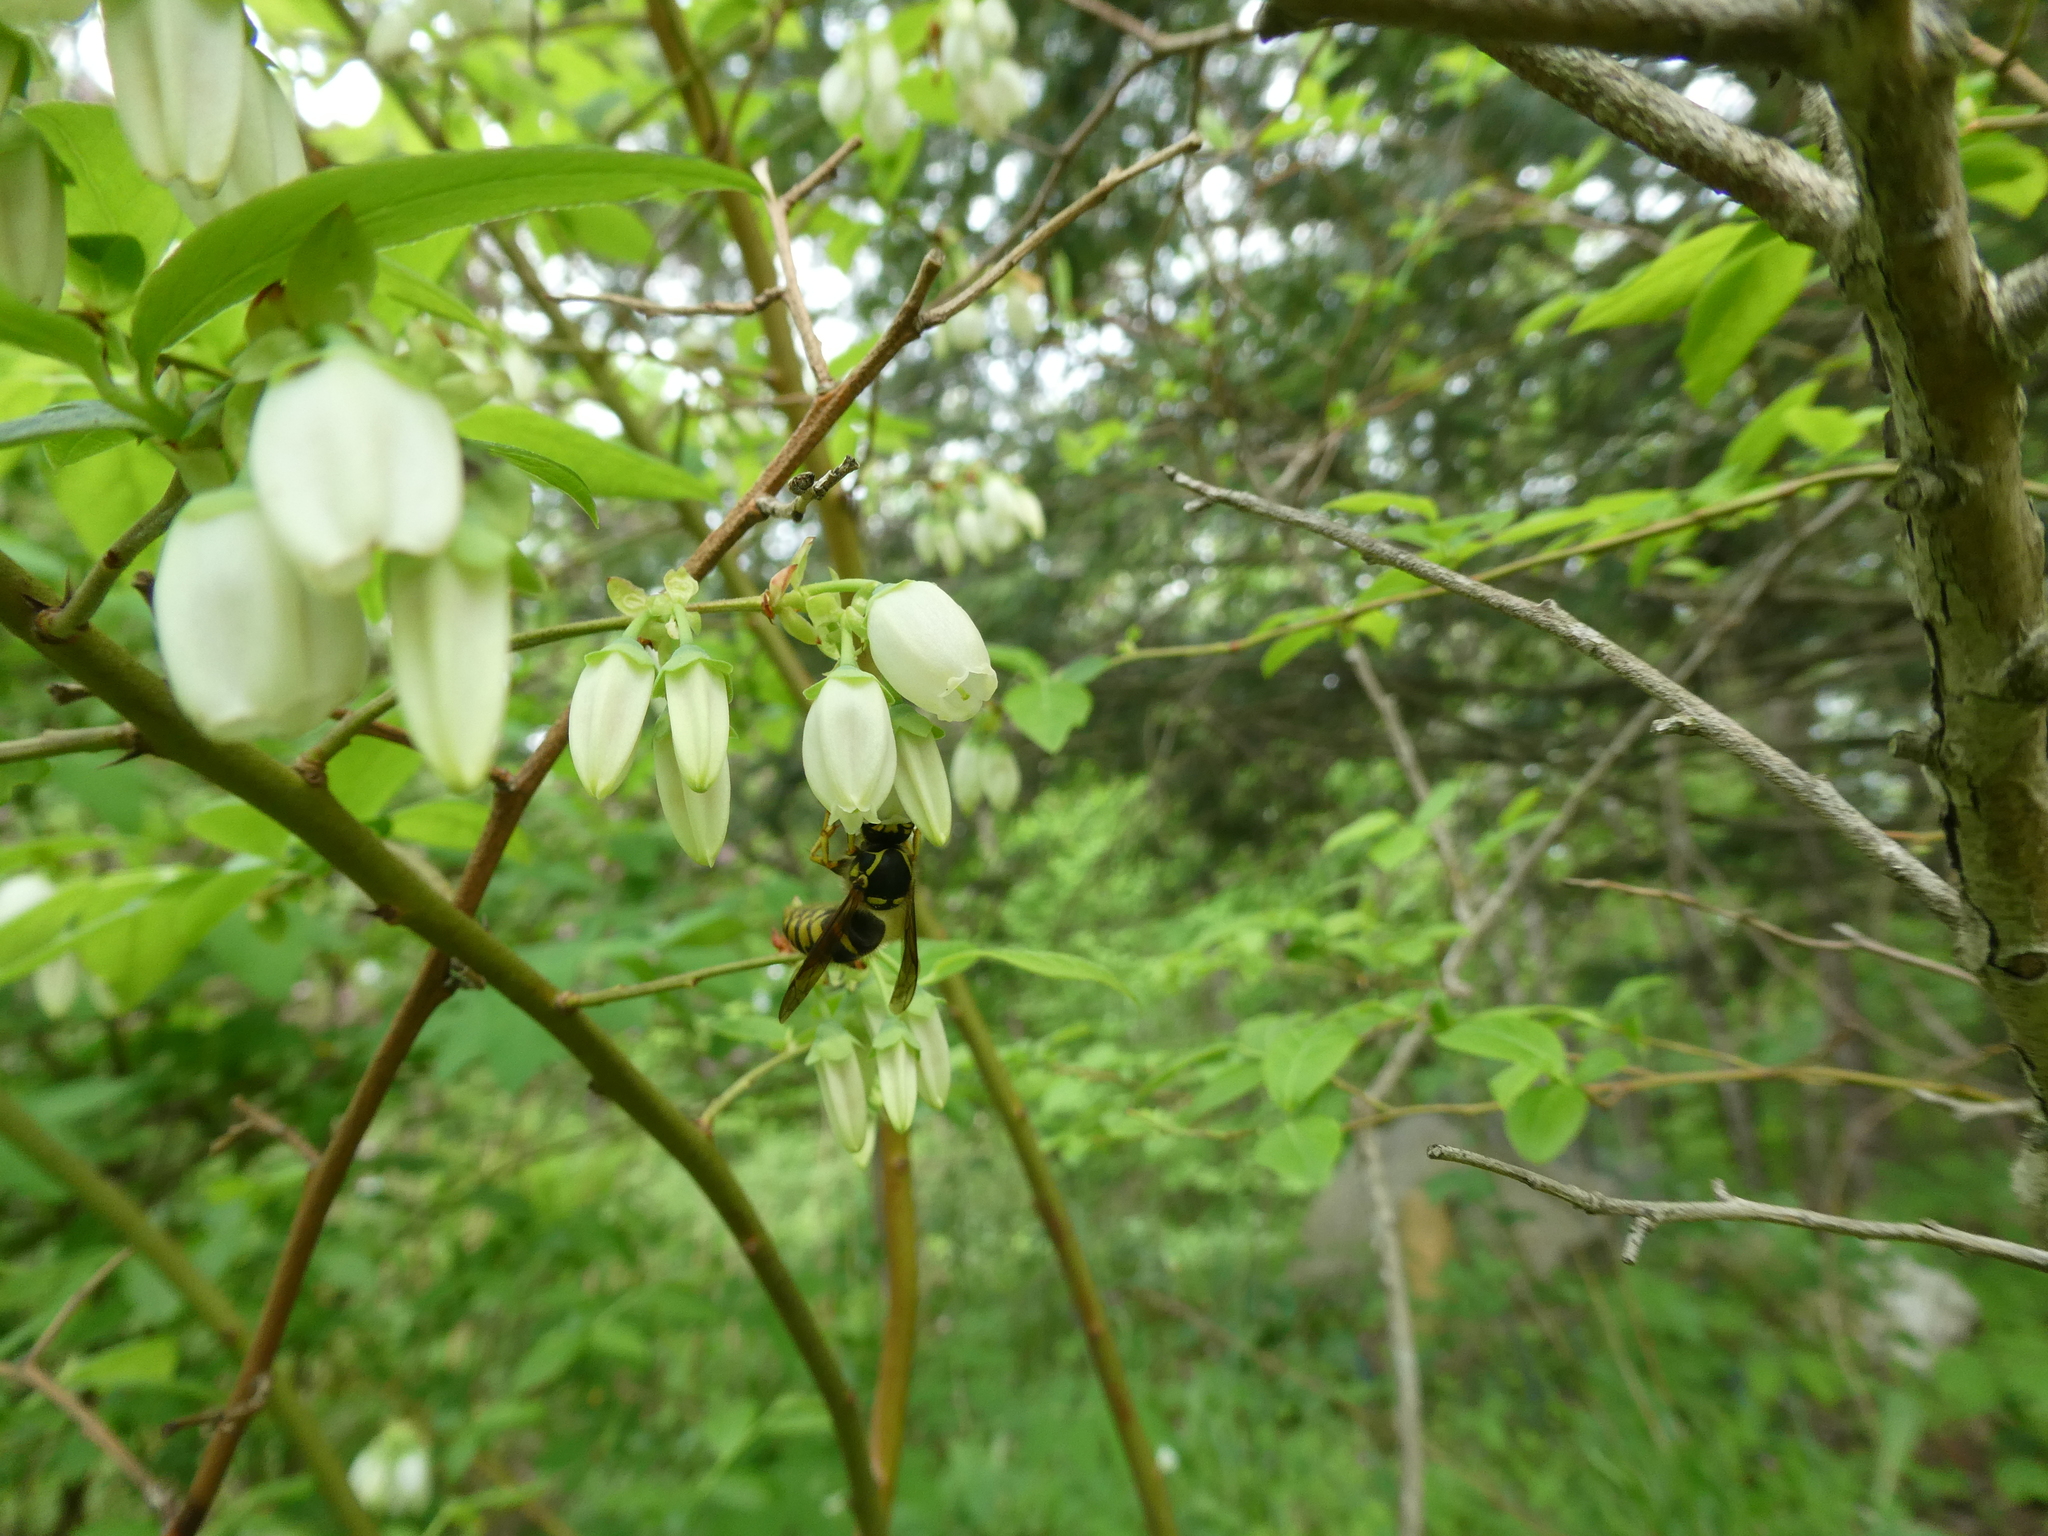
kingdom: Animalia
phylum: Arthropoda
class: Insecta
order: Hymenoptera
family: Vespidae
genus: Dolichovespula
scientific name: Dolichovespula arenaria
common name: Aerial yellowjacket
